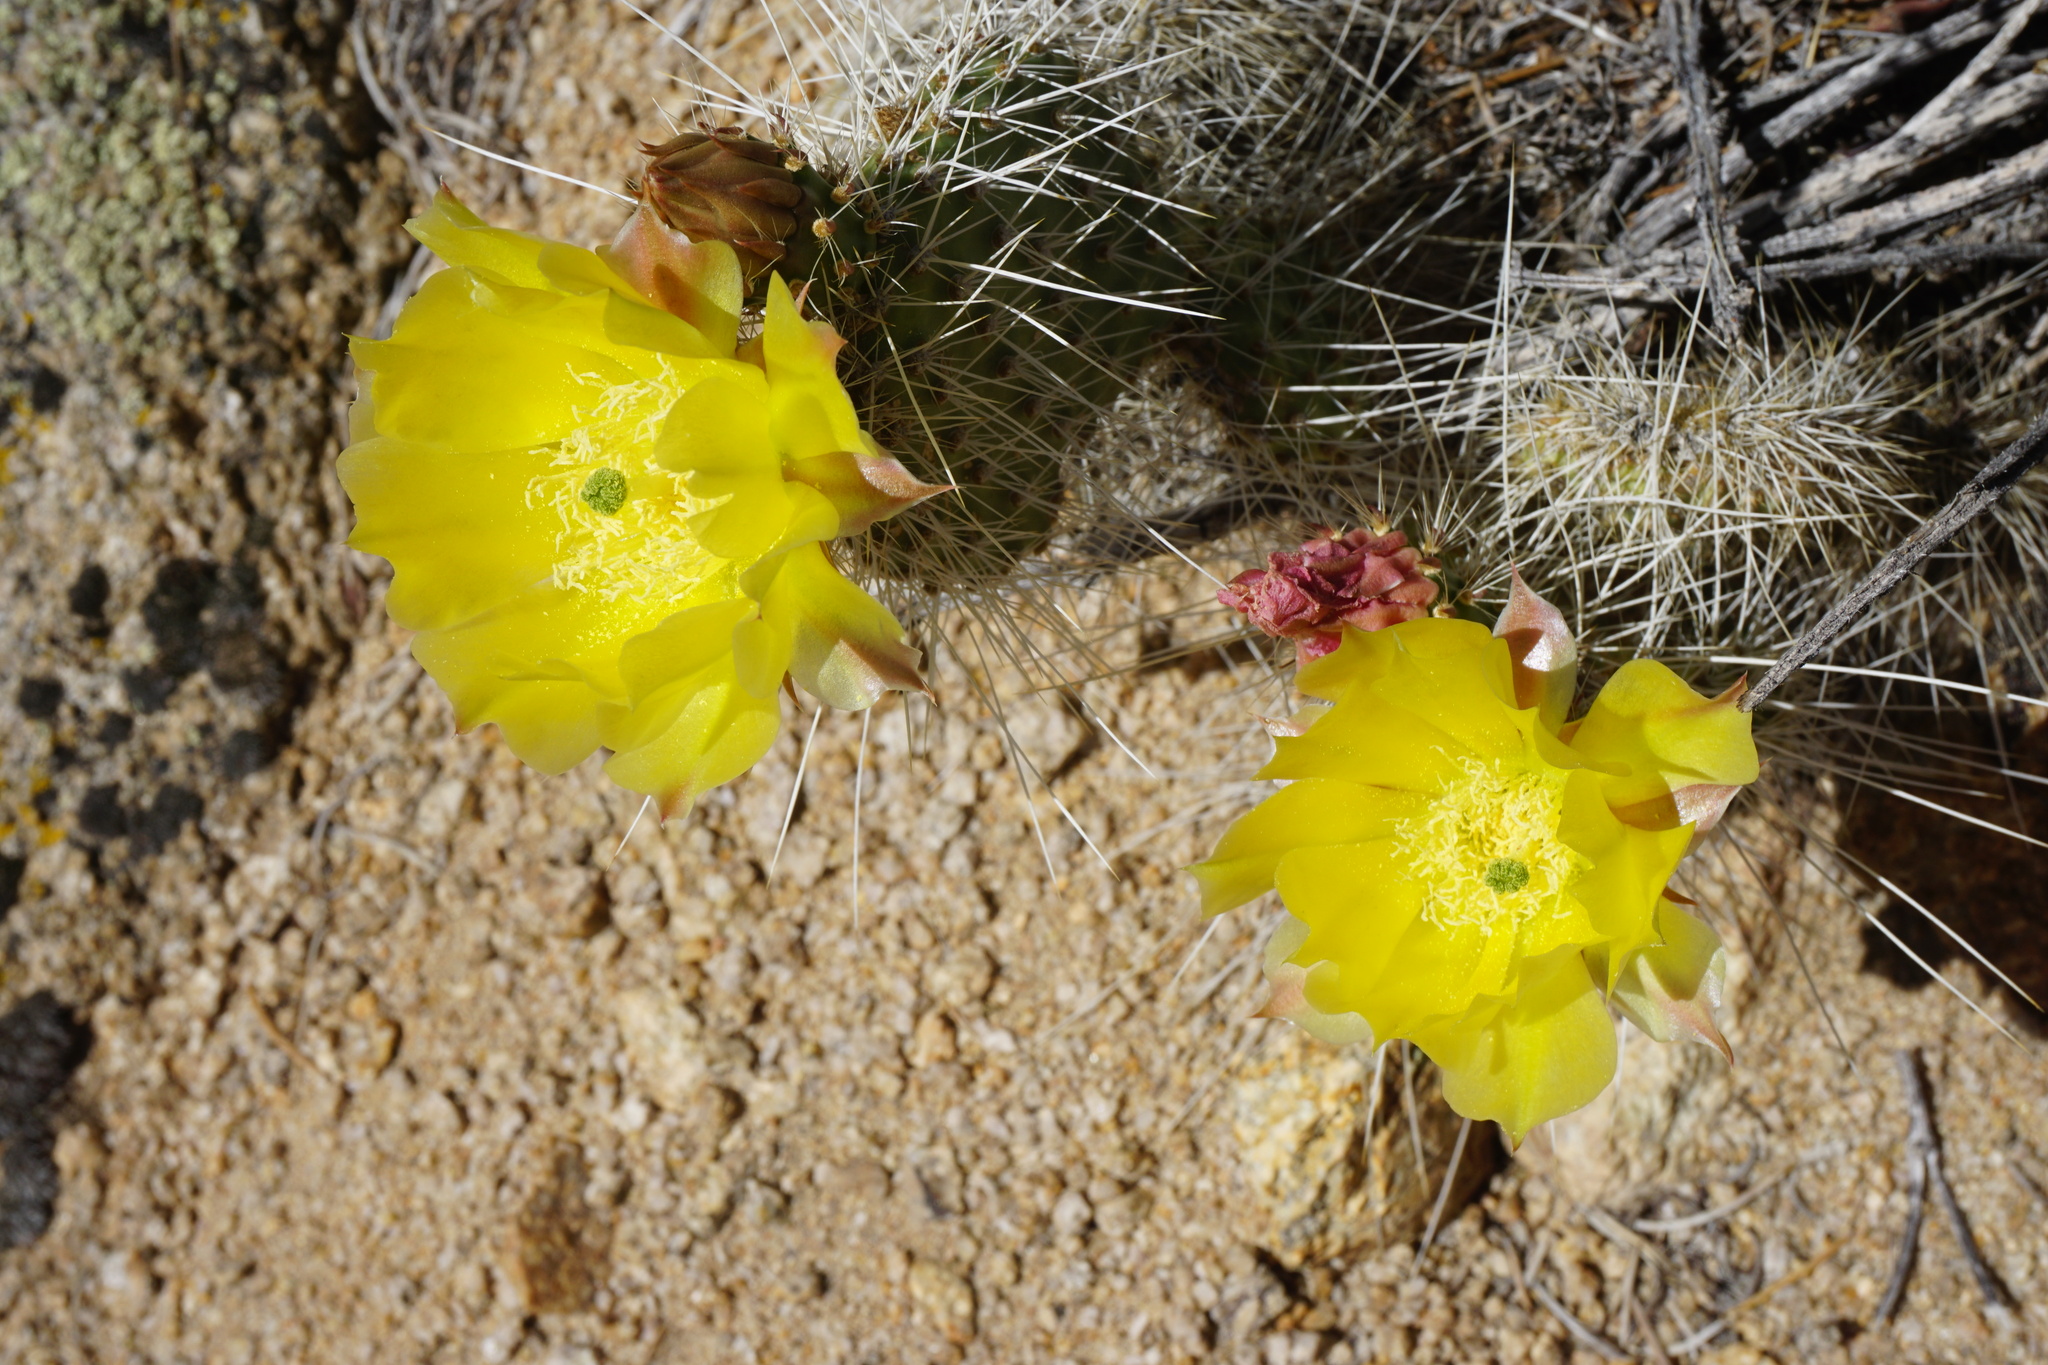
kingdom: Plantae
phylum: Tracheophyta
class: Magnoliopsida
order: Caryophyllales
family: Cactaceae
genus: Opuntia
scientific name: Opuntia polyacantha
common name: Plains prickly-pear
